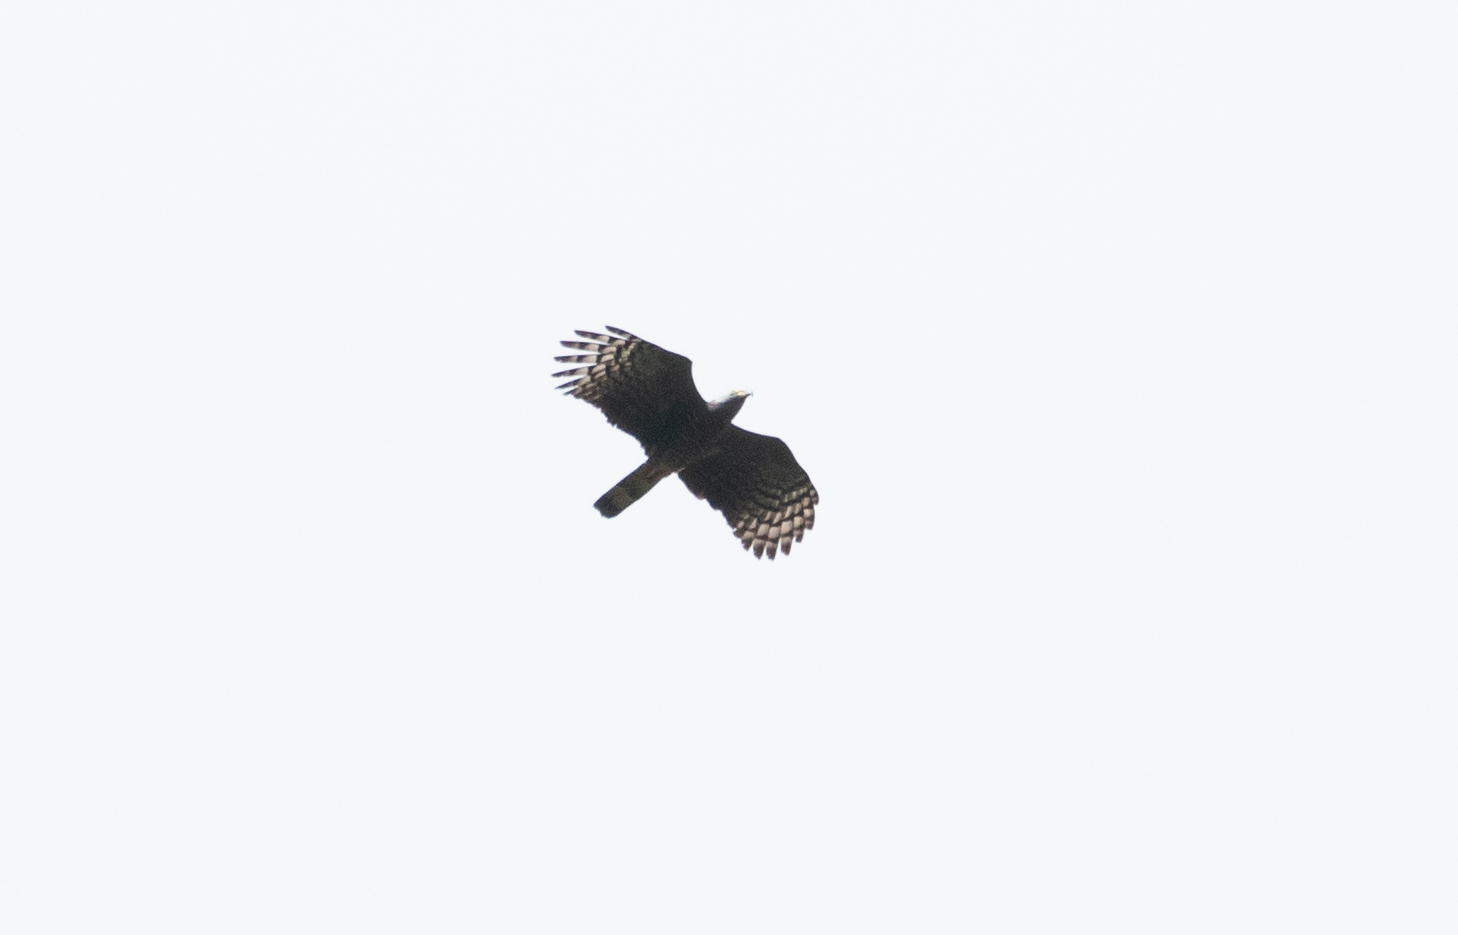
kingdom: Animalia
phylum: Chordata
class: Aves
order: Accipitriformes
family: Accipitridae
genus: Chondrohierax
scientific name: Chondrohierax uncinatus
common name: Hook-billed kite
